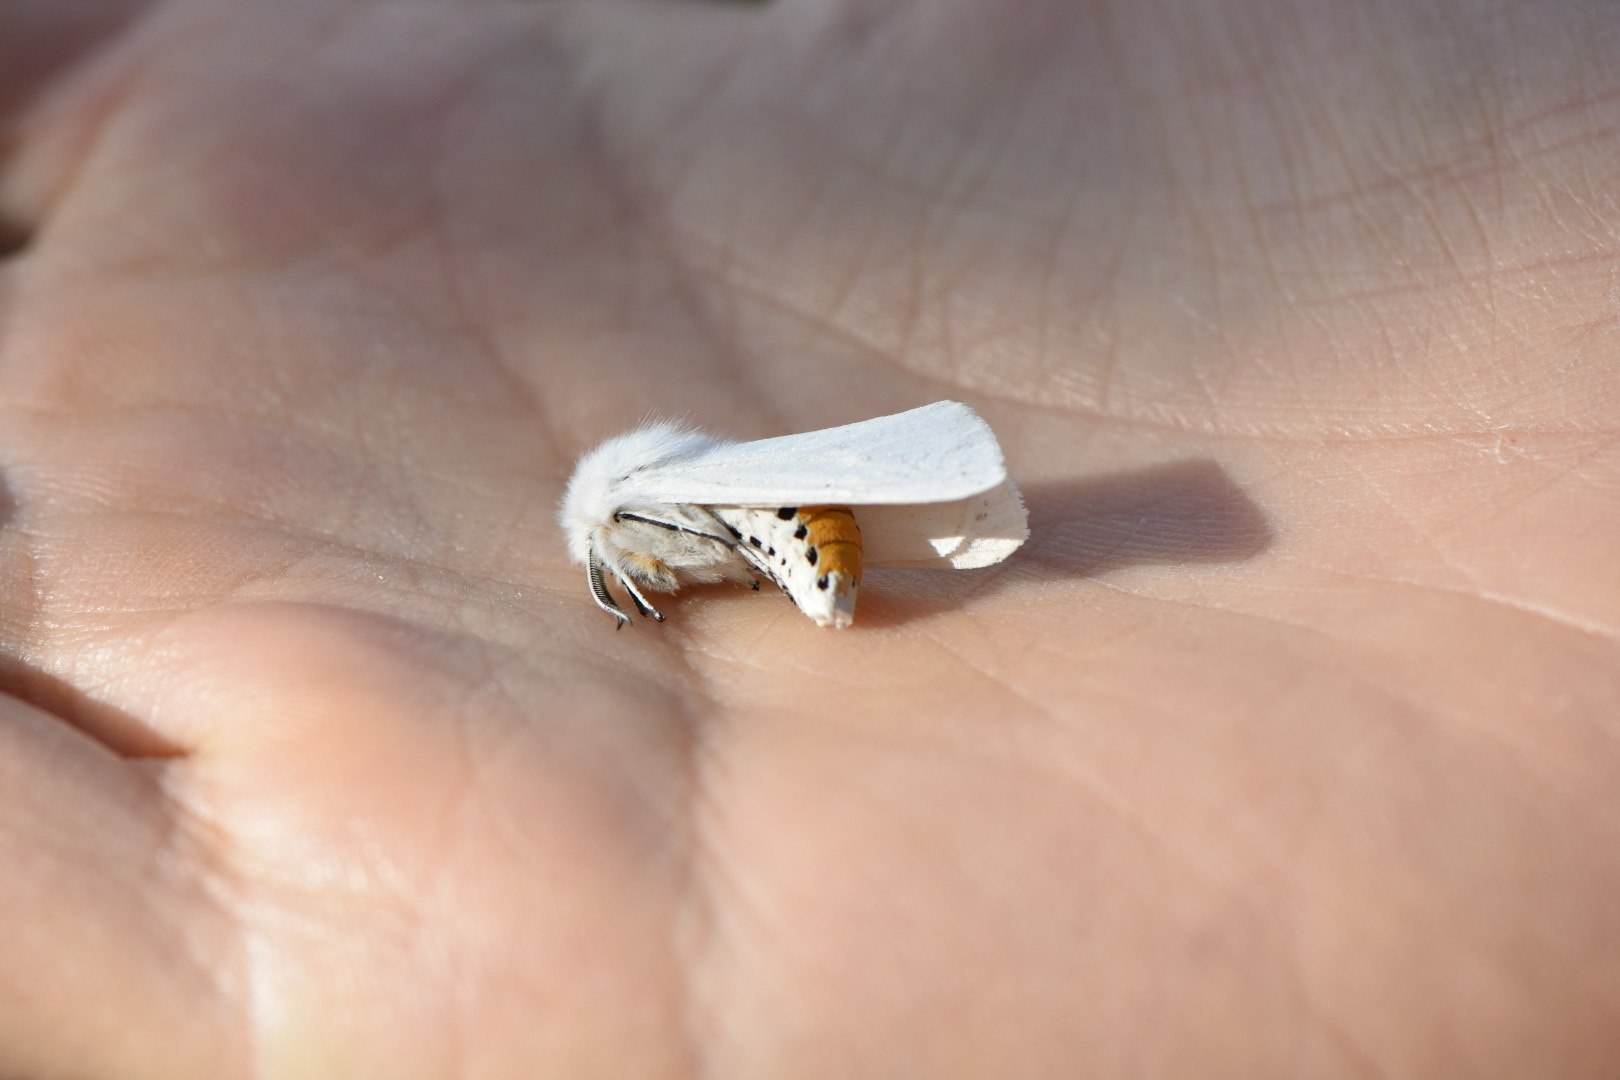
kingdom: Animalia
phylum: Arthropoda
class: Insecta
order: Lepidoptera
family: Erebidae
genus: Spilosoma
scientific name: Spilosoma urticae
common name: Water ermine
